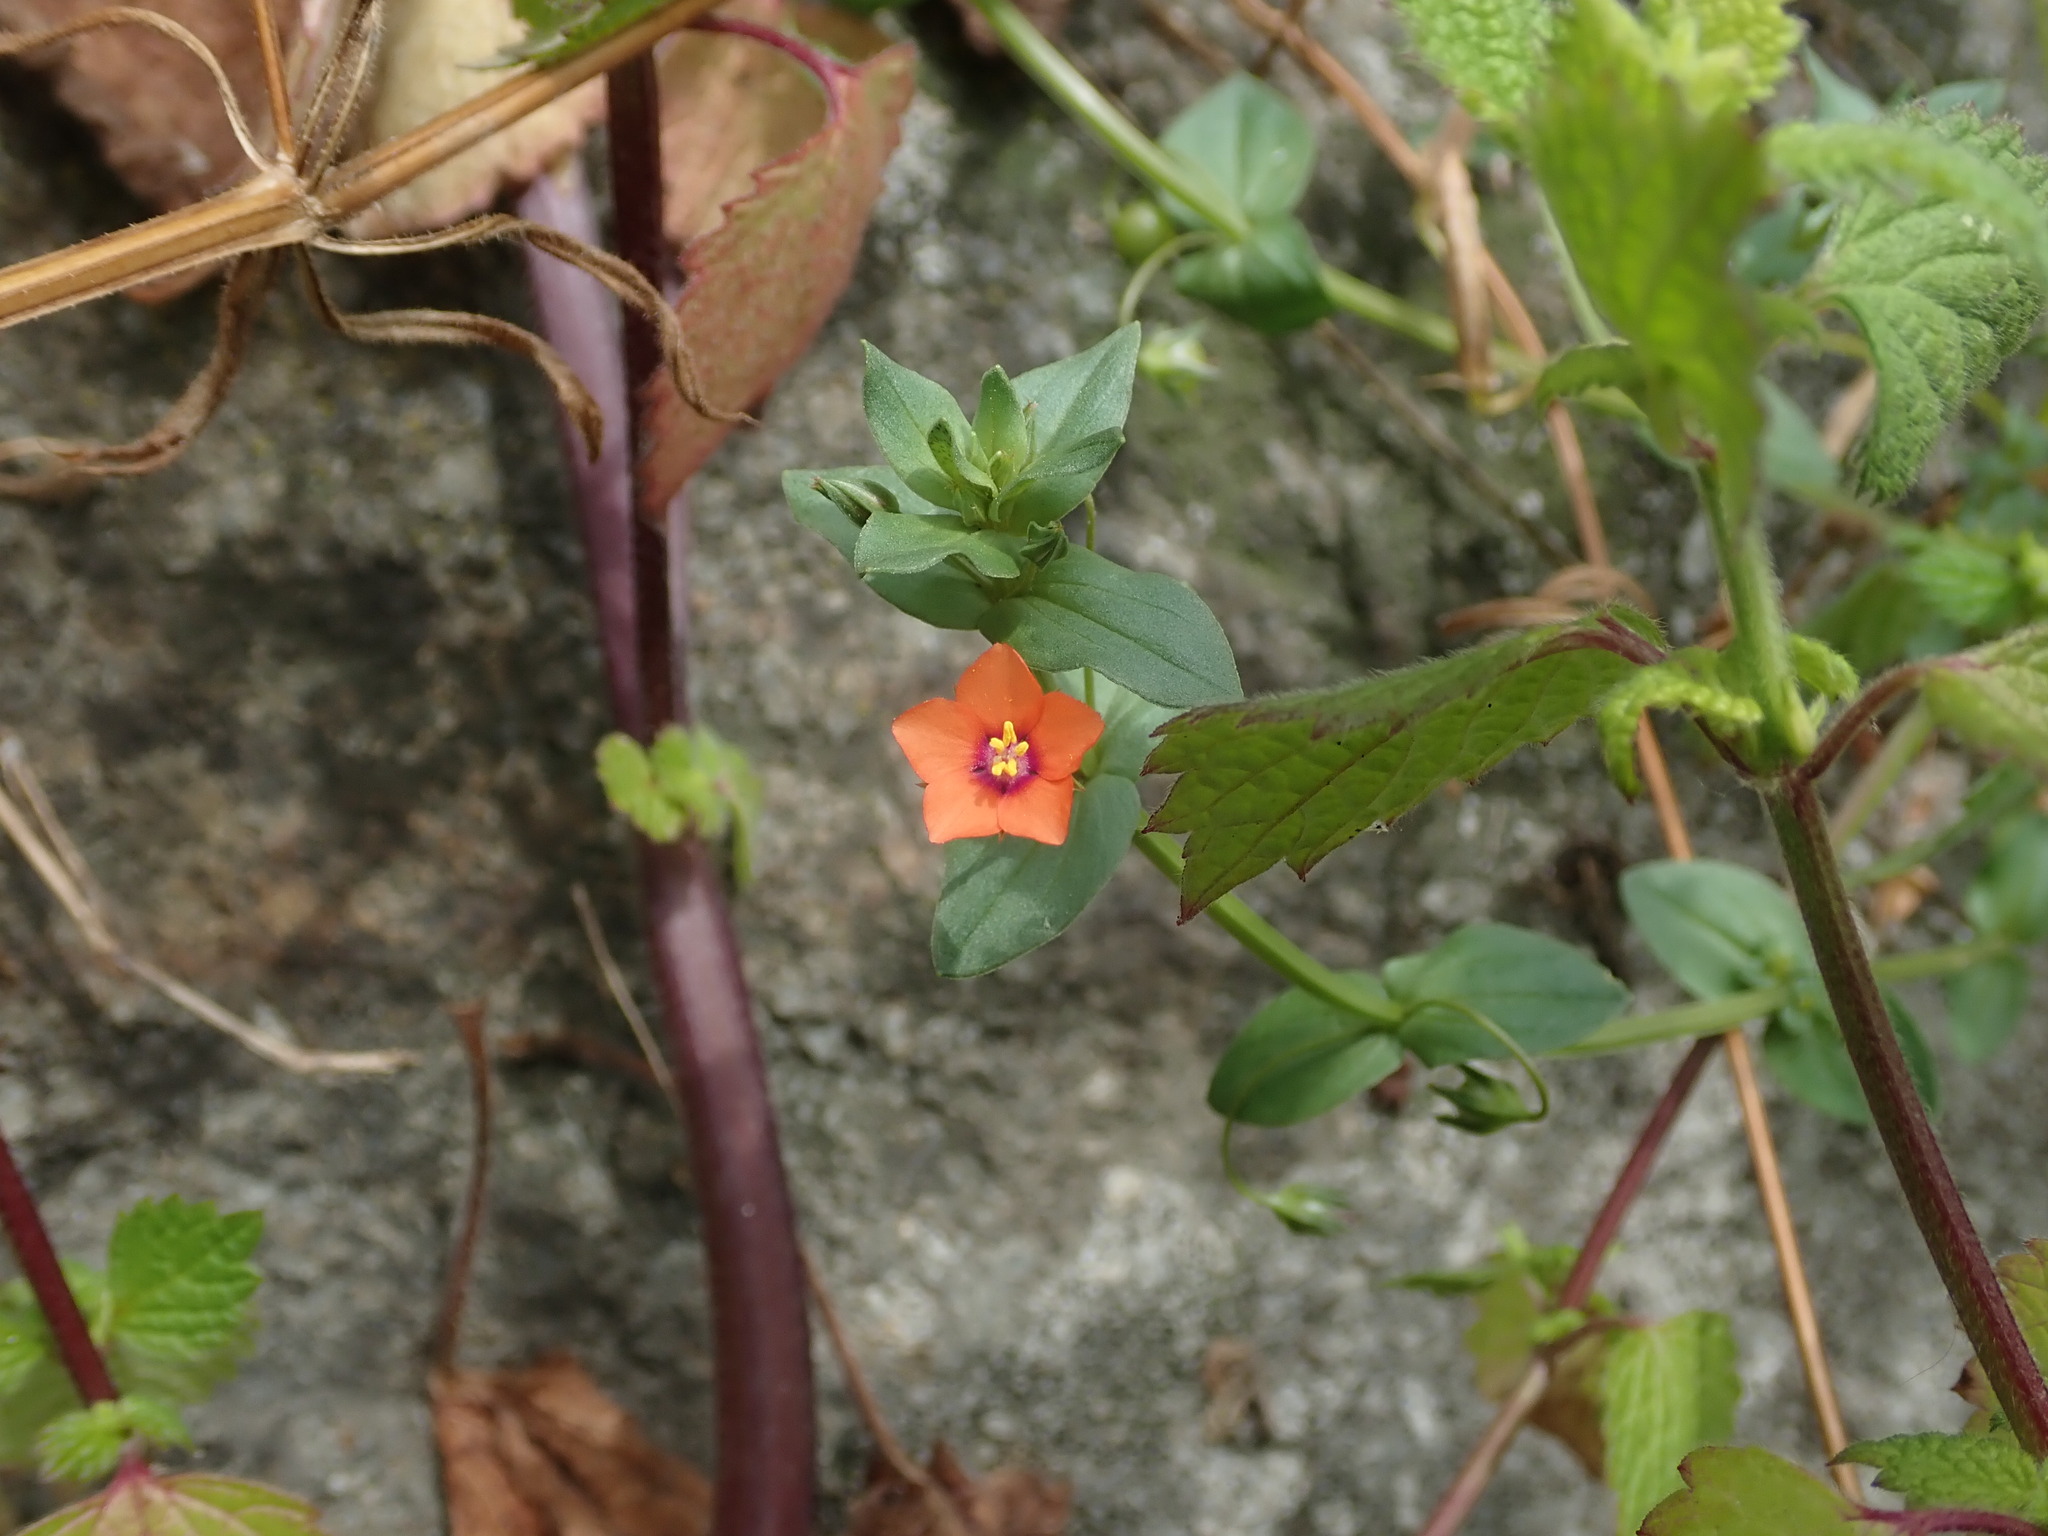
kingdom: Plantae
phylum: Tracheophyta
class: Magnoliopsida
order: Ericales
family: Primulaceae
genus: Lysimachia
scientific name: Lysimachia arvensis
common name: Scarlet pimpernel
